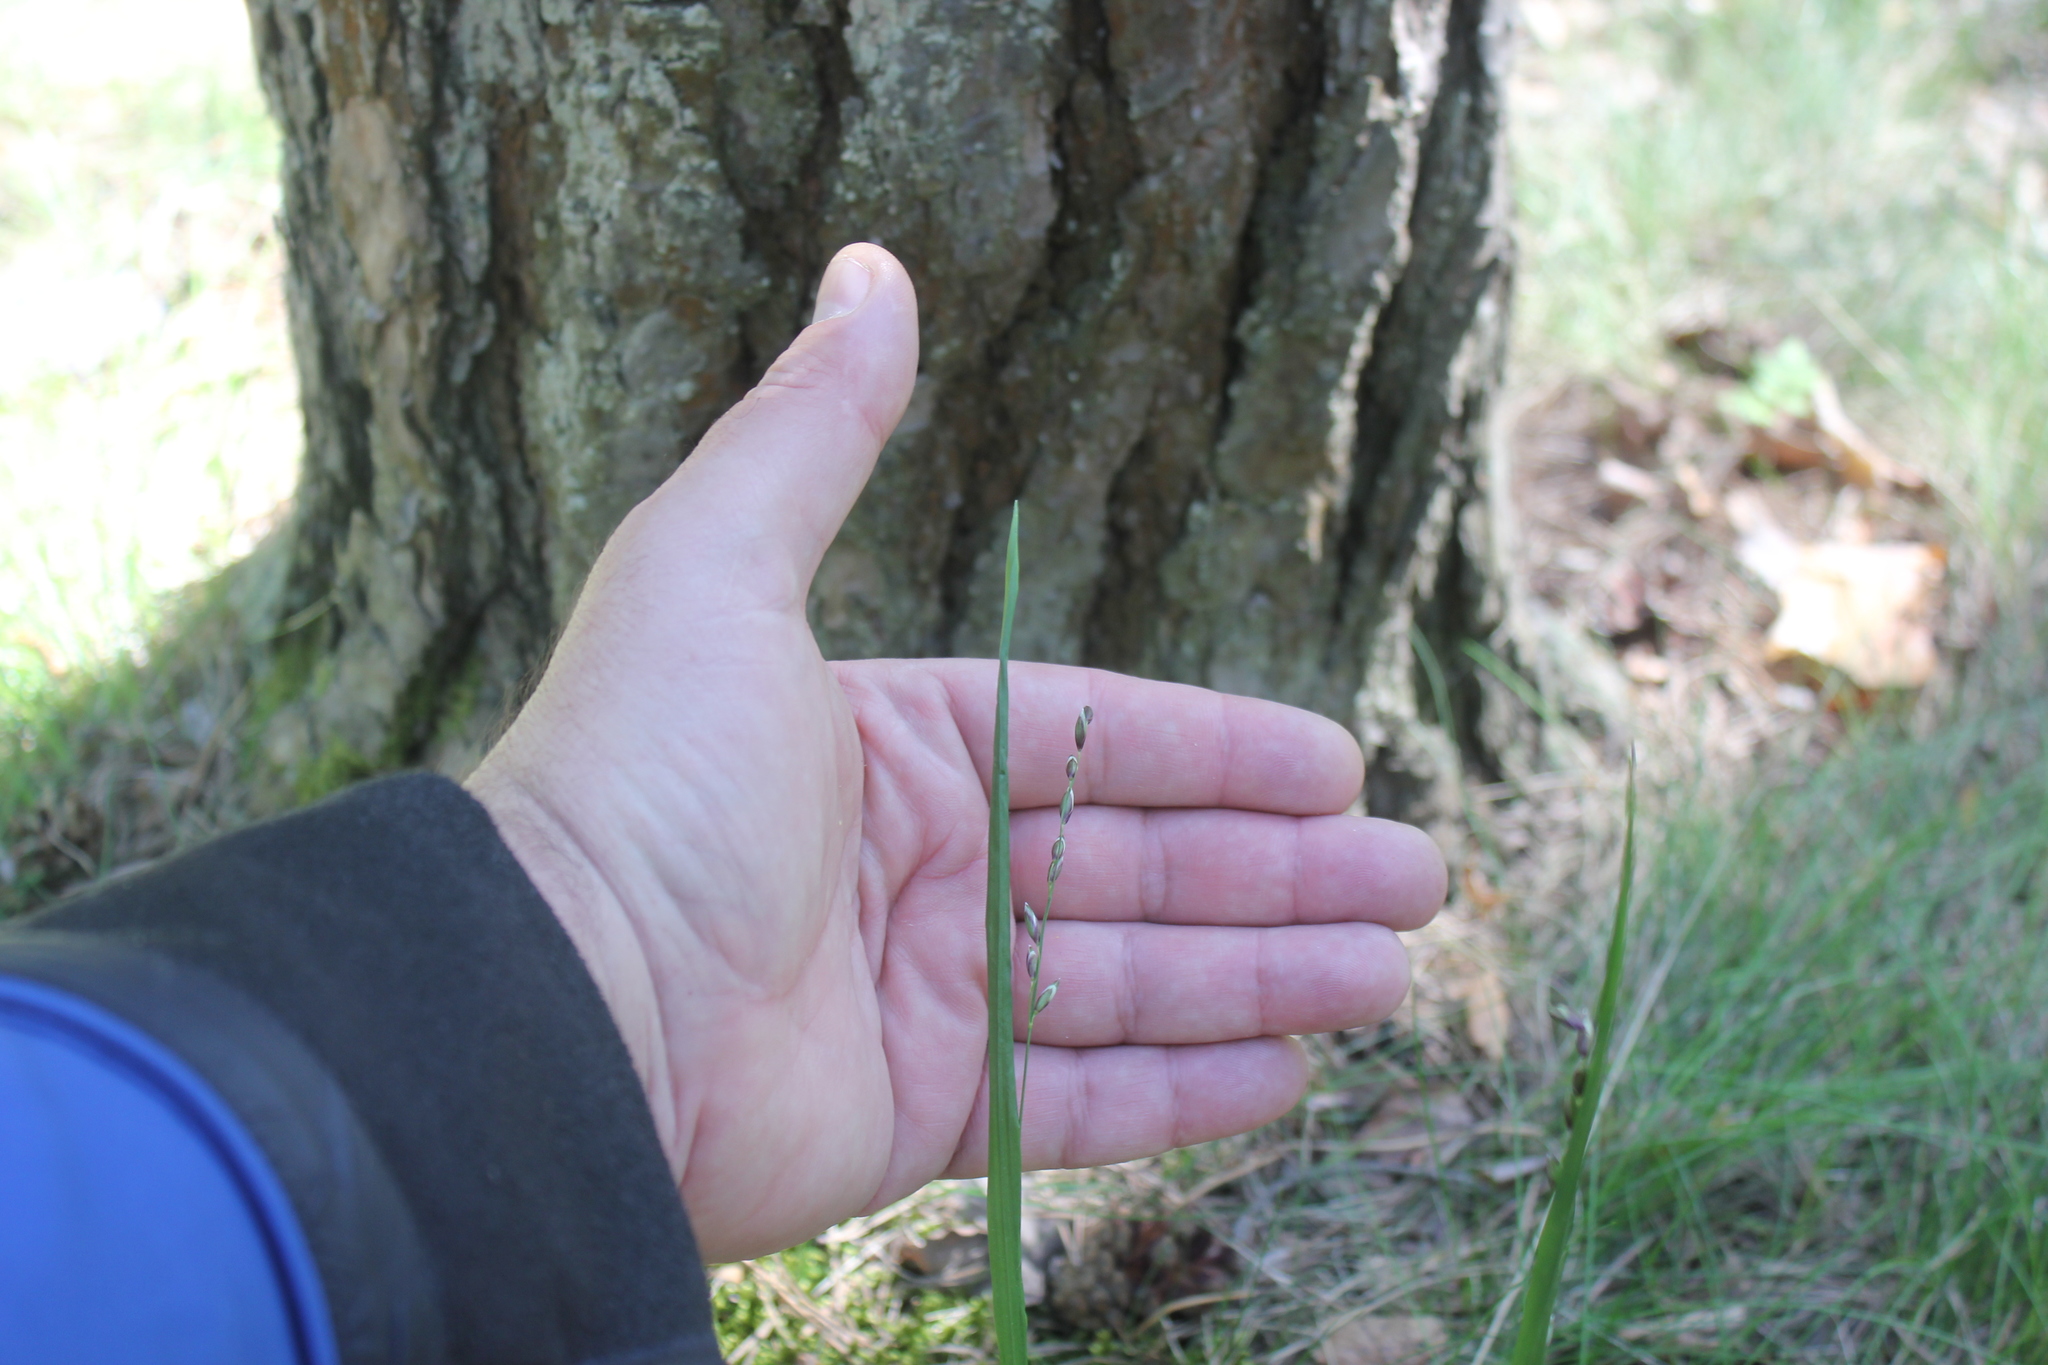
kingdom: Plantae
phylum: Tracheophyta
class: Liliopsida
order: Poales
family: Poaceae
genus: Melica
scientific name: Melica nutans
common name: Mountain melick
